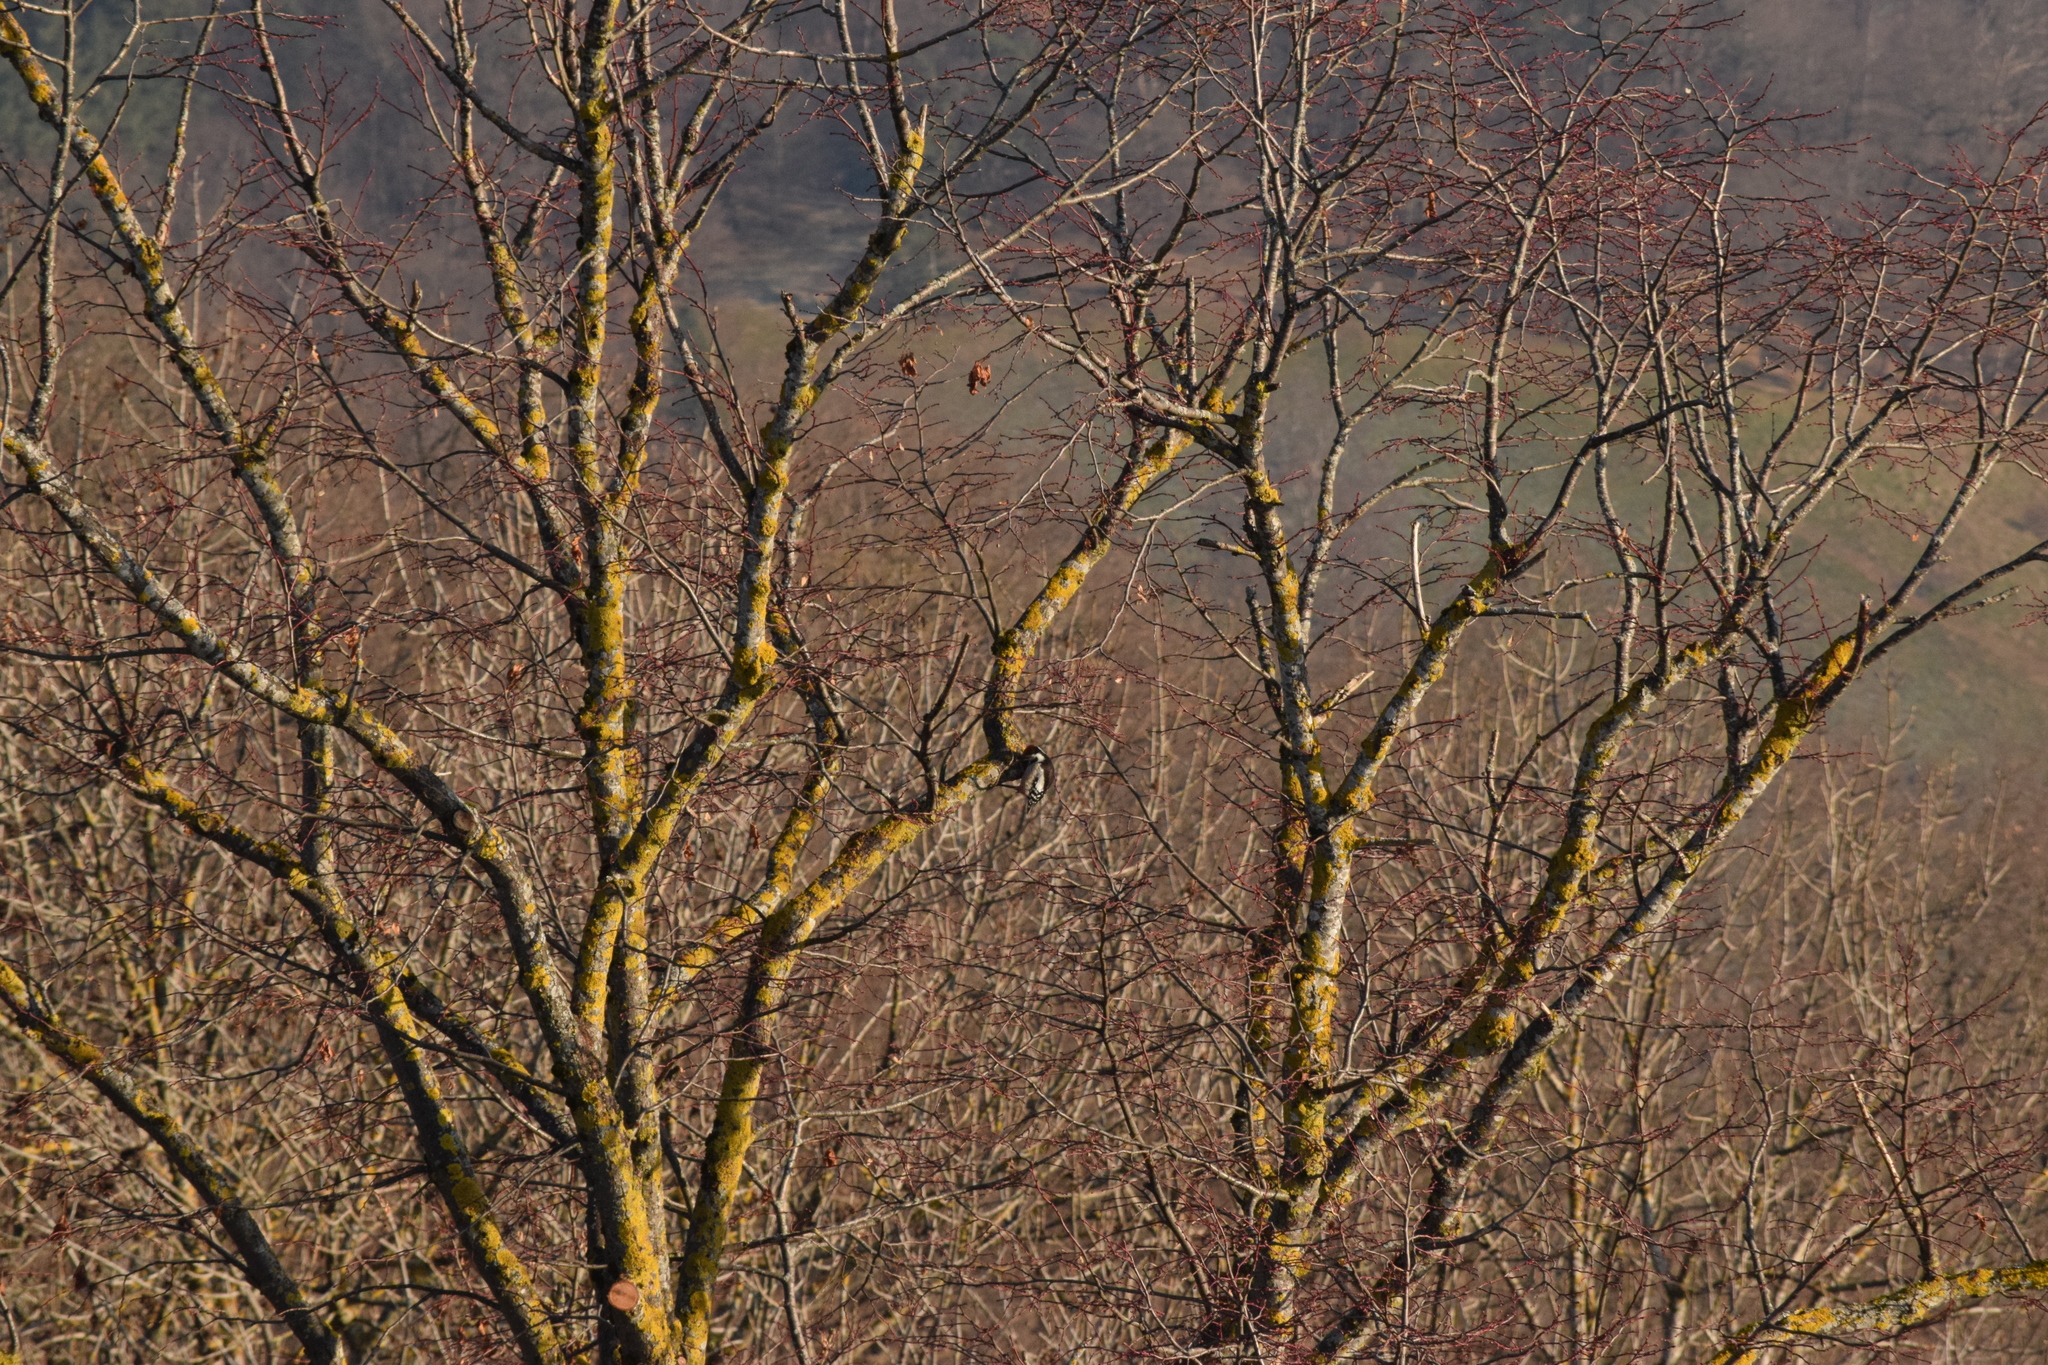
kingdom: Animalia
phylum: Chordata
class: Aves
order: Piciformes
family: Picidae
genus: Dendrocoptes
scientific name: Dendrocoptes medius
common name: Middle spotted woodpecker
